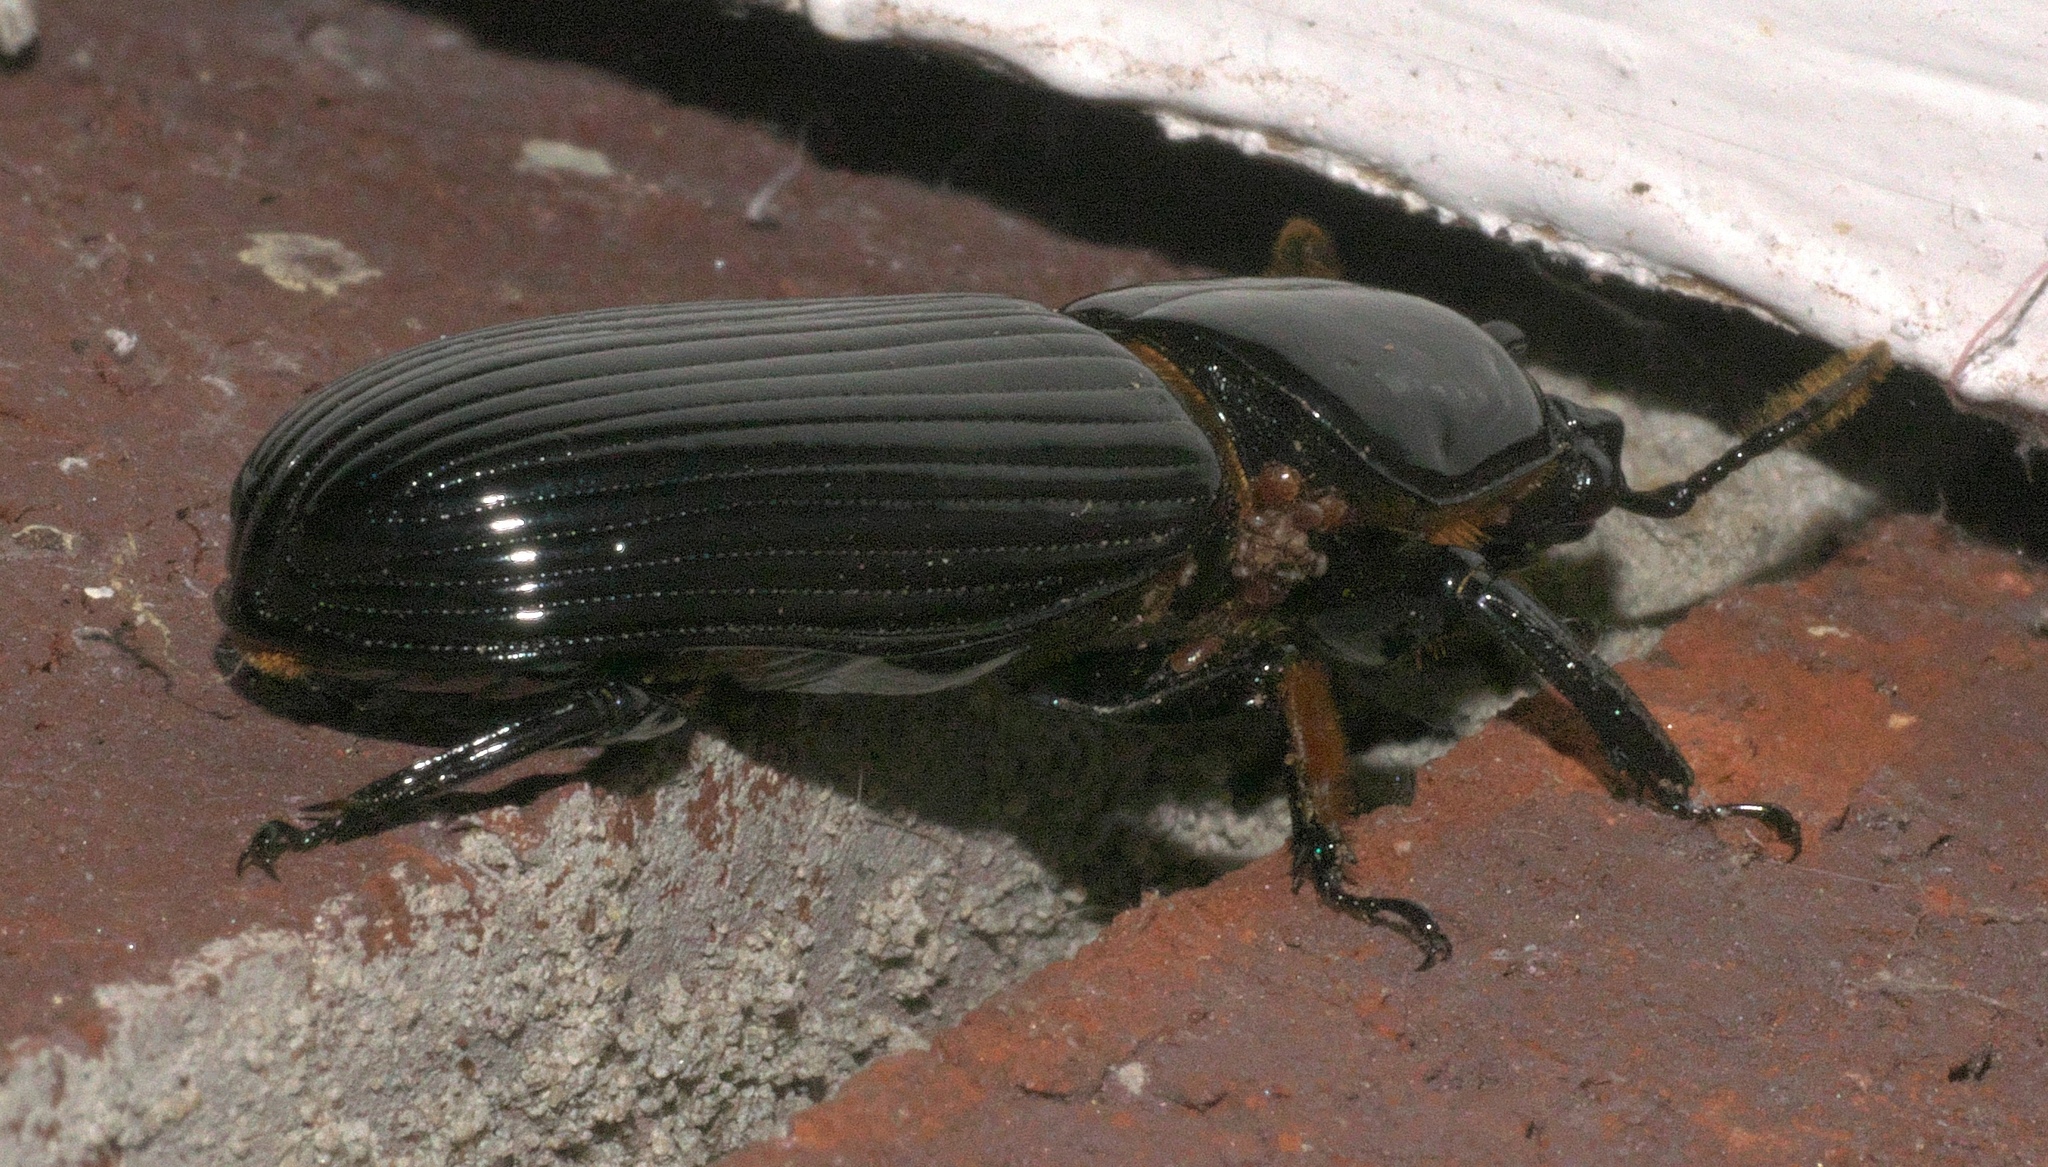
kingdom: Animalia
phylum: Arthropoda
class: Insecta
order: Coleoptera
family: Passalidae
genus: Odontotaenius
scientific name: Odontotaenius disjunctus
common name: Patent leather beetle
